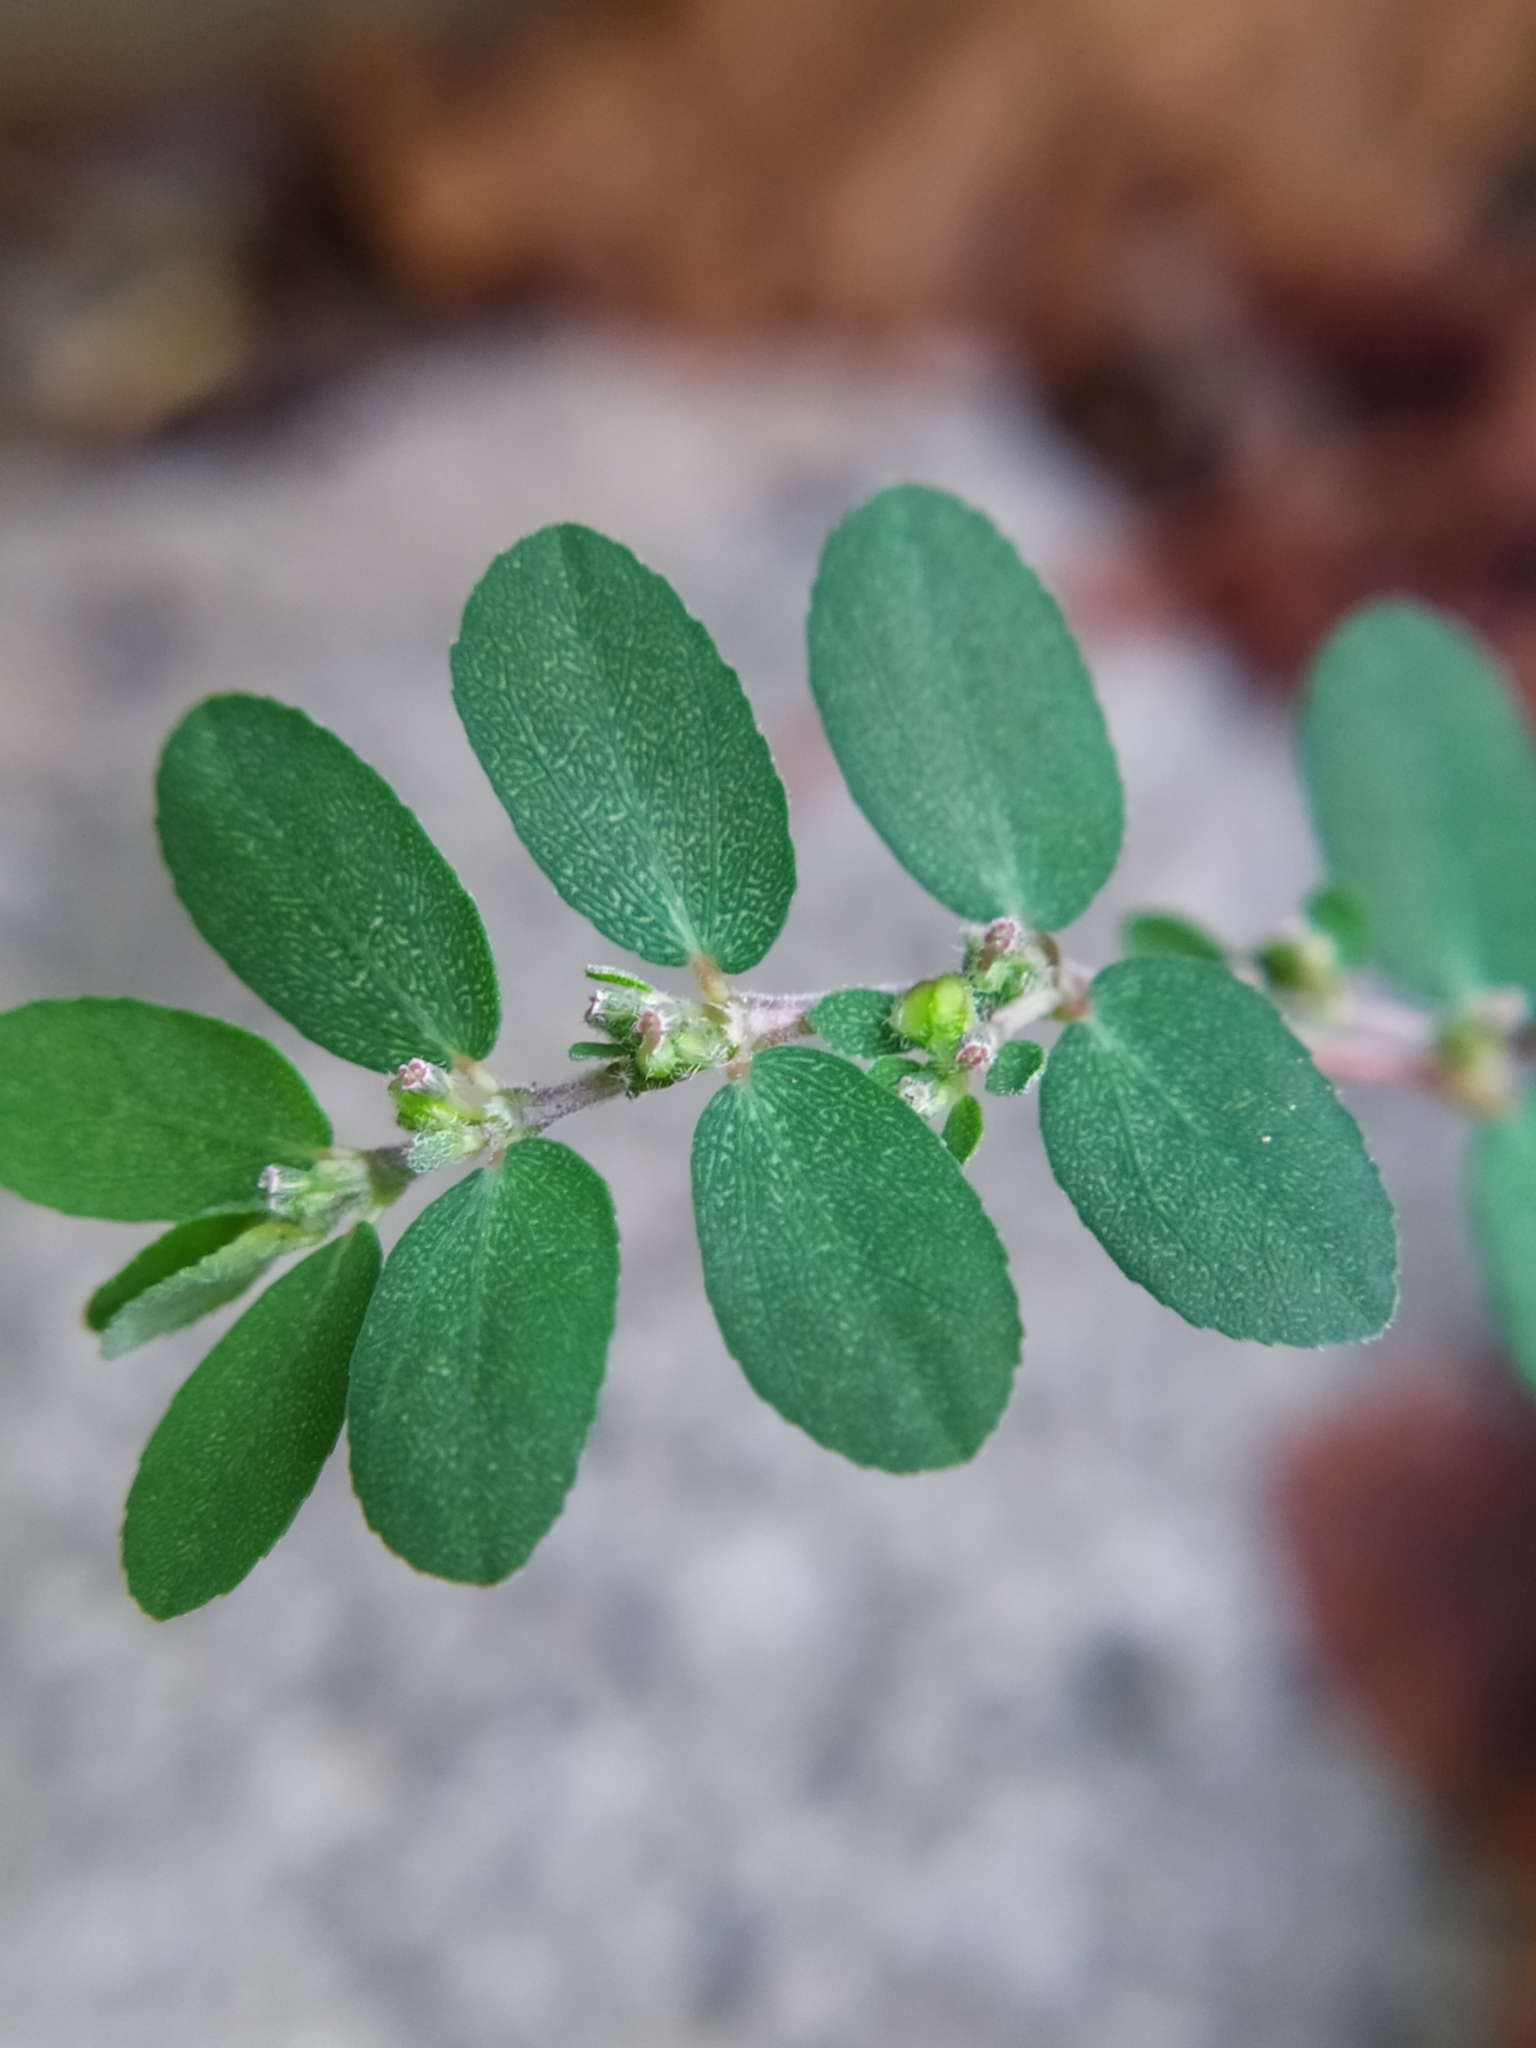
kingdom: Plantae
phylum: Tracheophyta
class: Magnoliopsida
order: Malpighiales
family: Euphorbiaceae
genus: Euphorbia
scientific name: Euphorbia prostrata
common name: Prostrate sandmat
